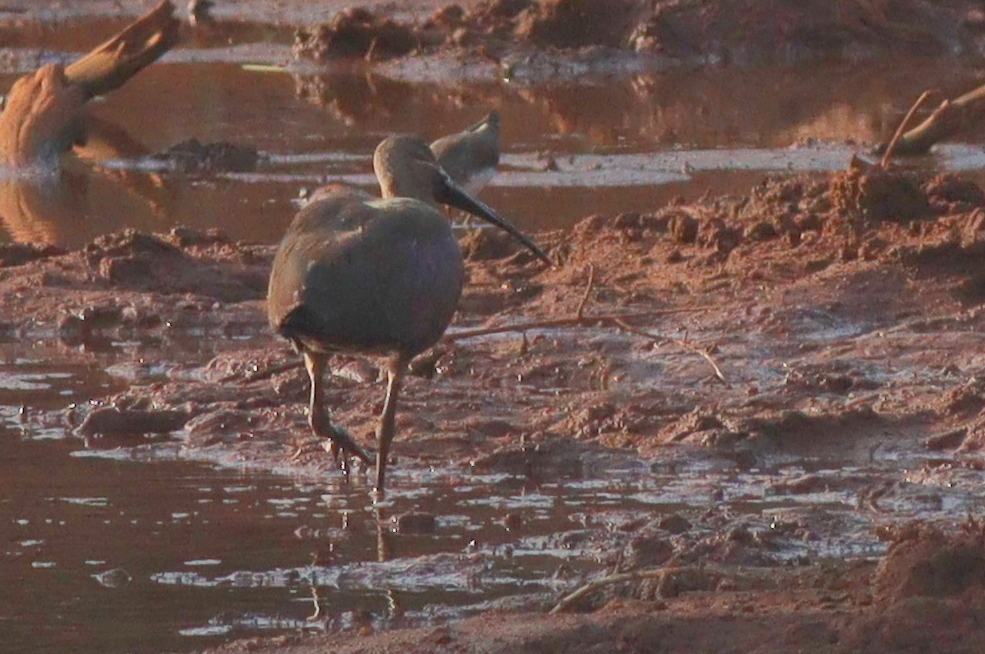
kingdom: Animalia
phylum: Chordata
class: Aves
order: Pelecaniformes
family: Threskiornithidae
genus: Bostrychia
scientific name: Bostrychia hagedash
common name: Hadada ibis
